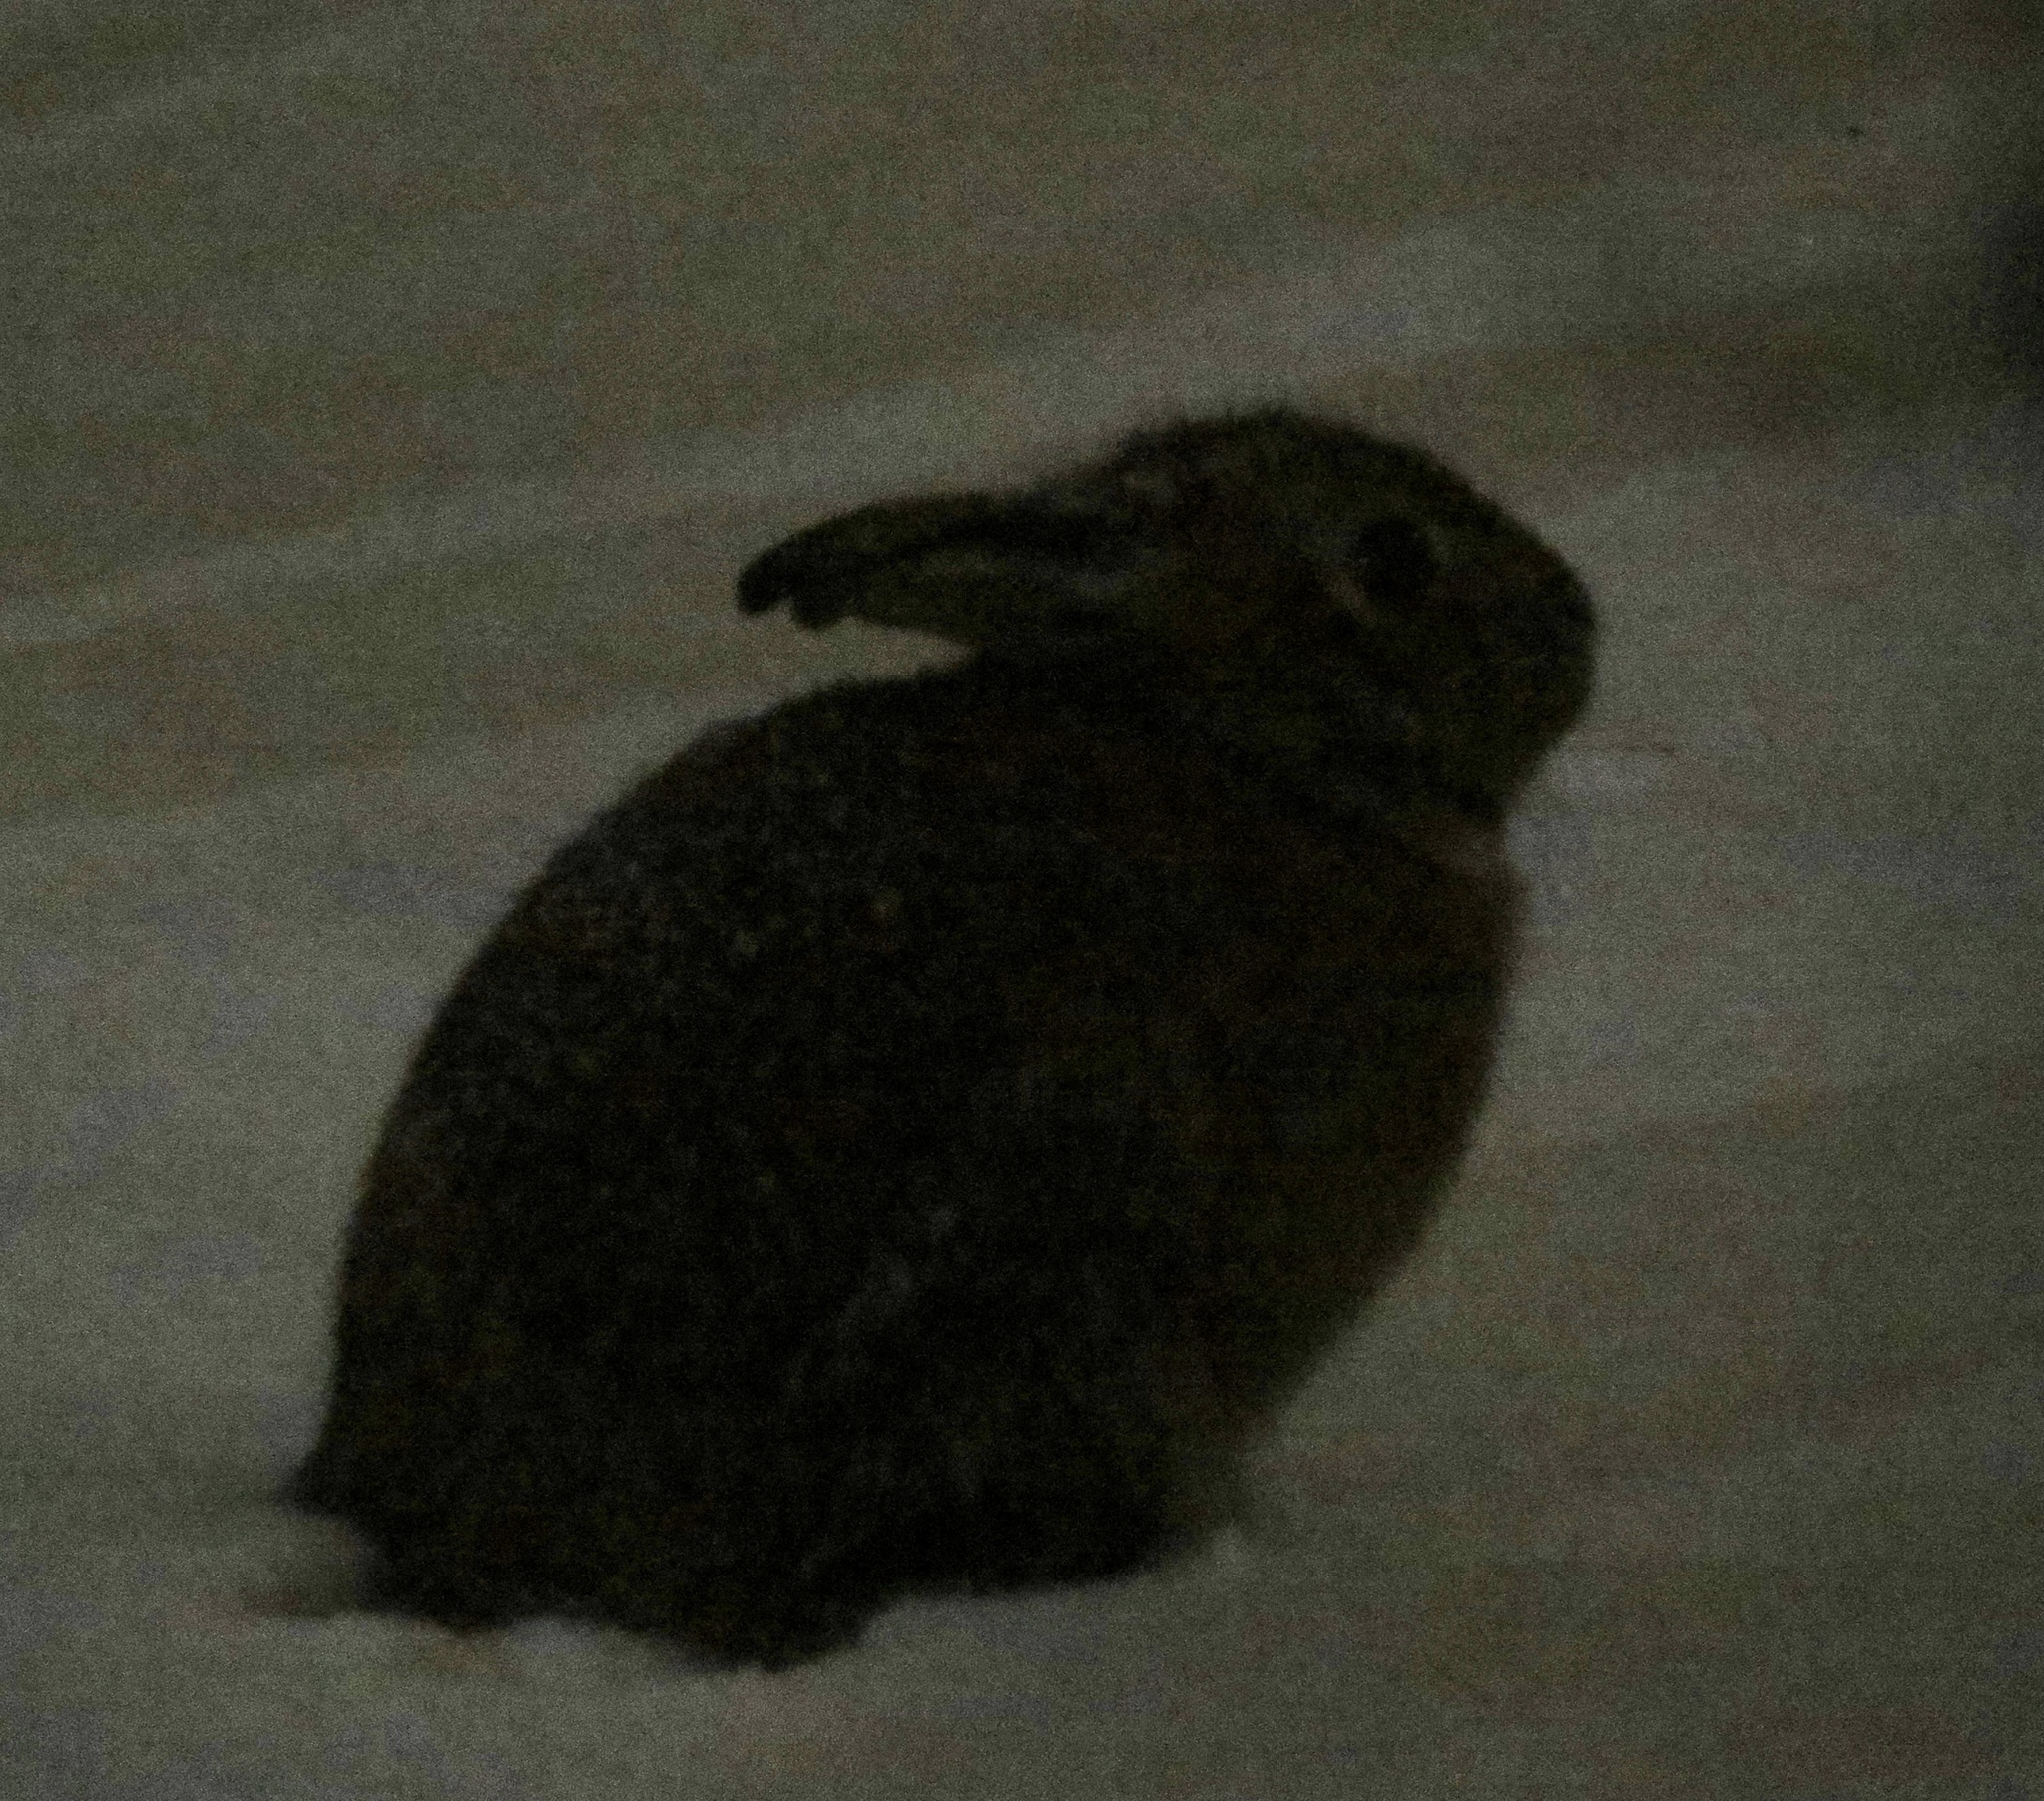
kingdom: Animalia
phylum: Chordata
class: Mammalia
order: Lagomorpha
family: Leporidae
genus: Sylvilagus
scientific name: Sylvilagus floridanus
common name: Eastern cottontail
